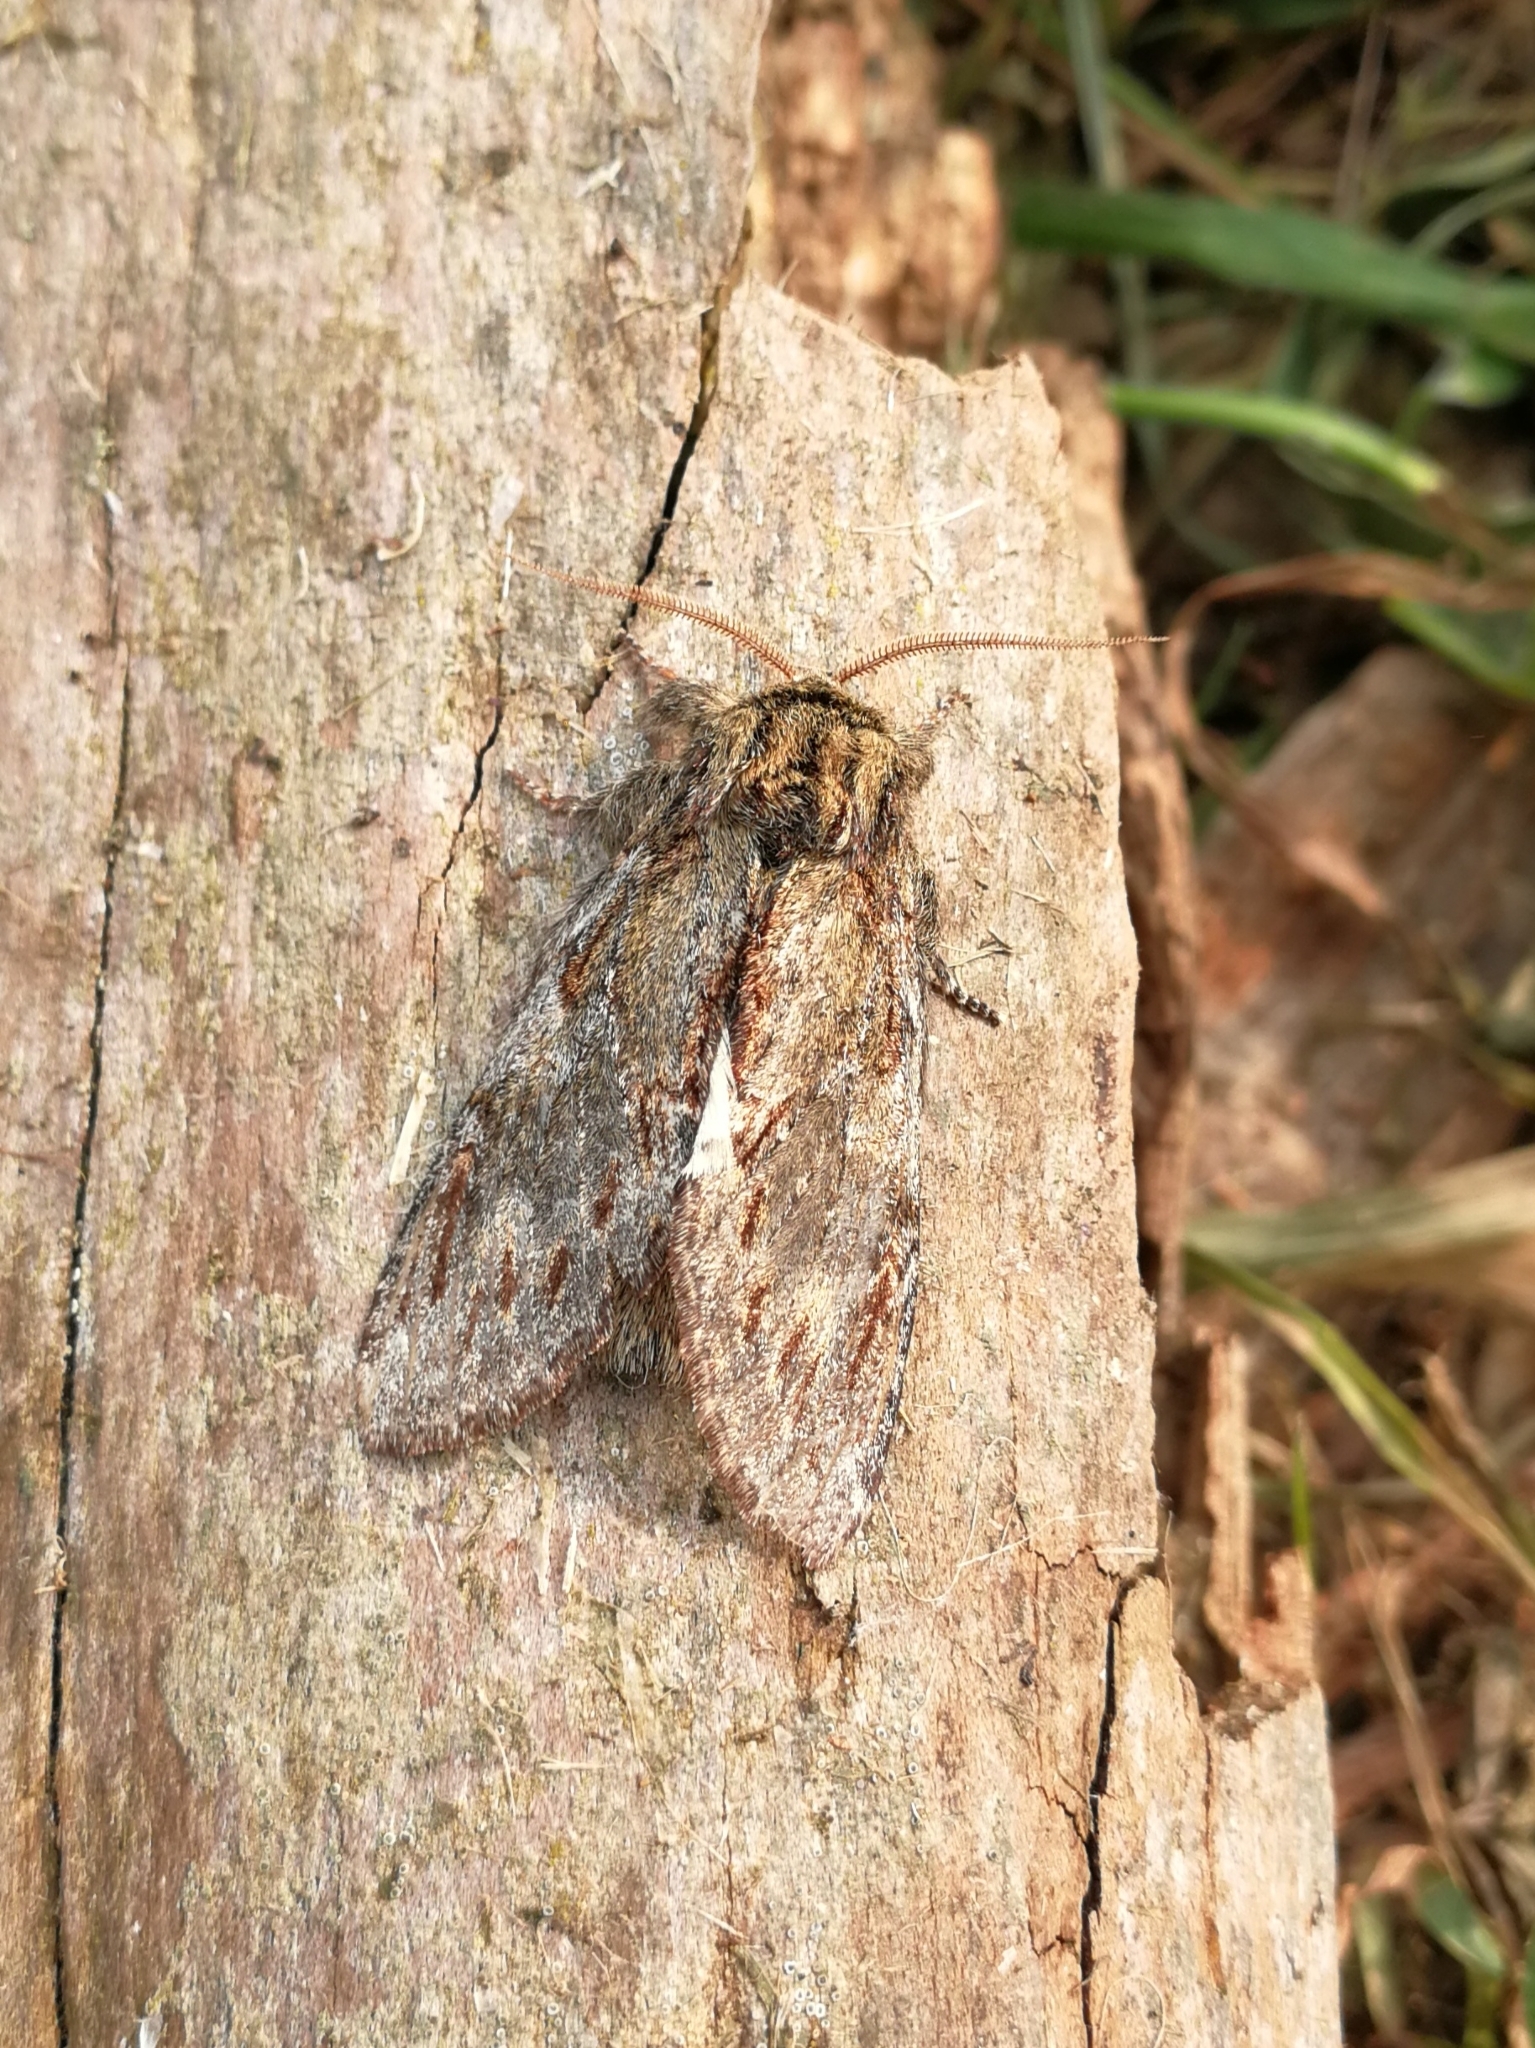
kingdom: Animalia
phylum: Arthropoda
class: Insecta
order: Lepidoptera
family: Notodontidae
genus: Peridea
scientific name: Peridea anceps
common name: Great prominent
